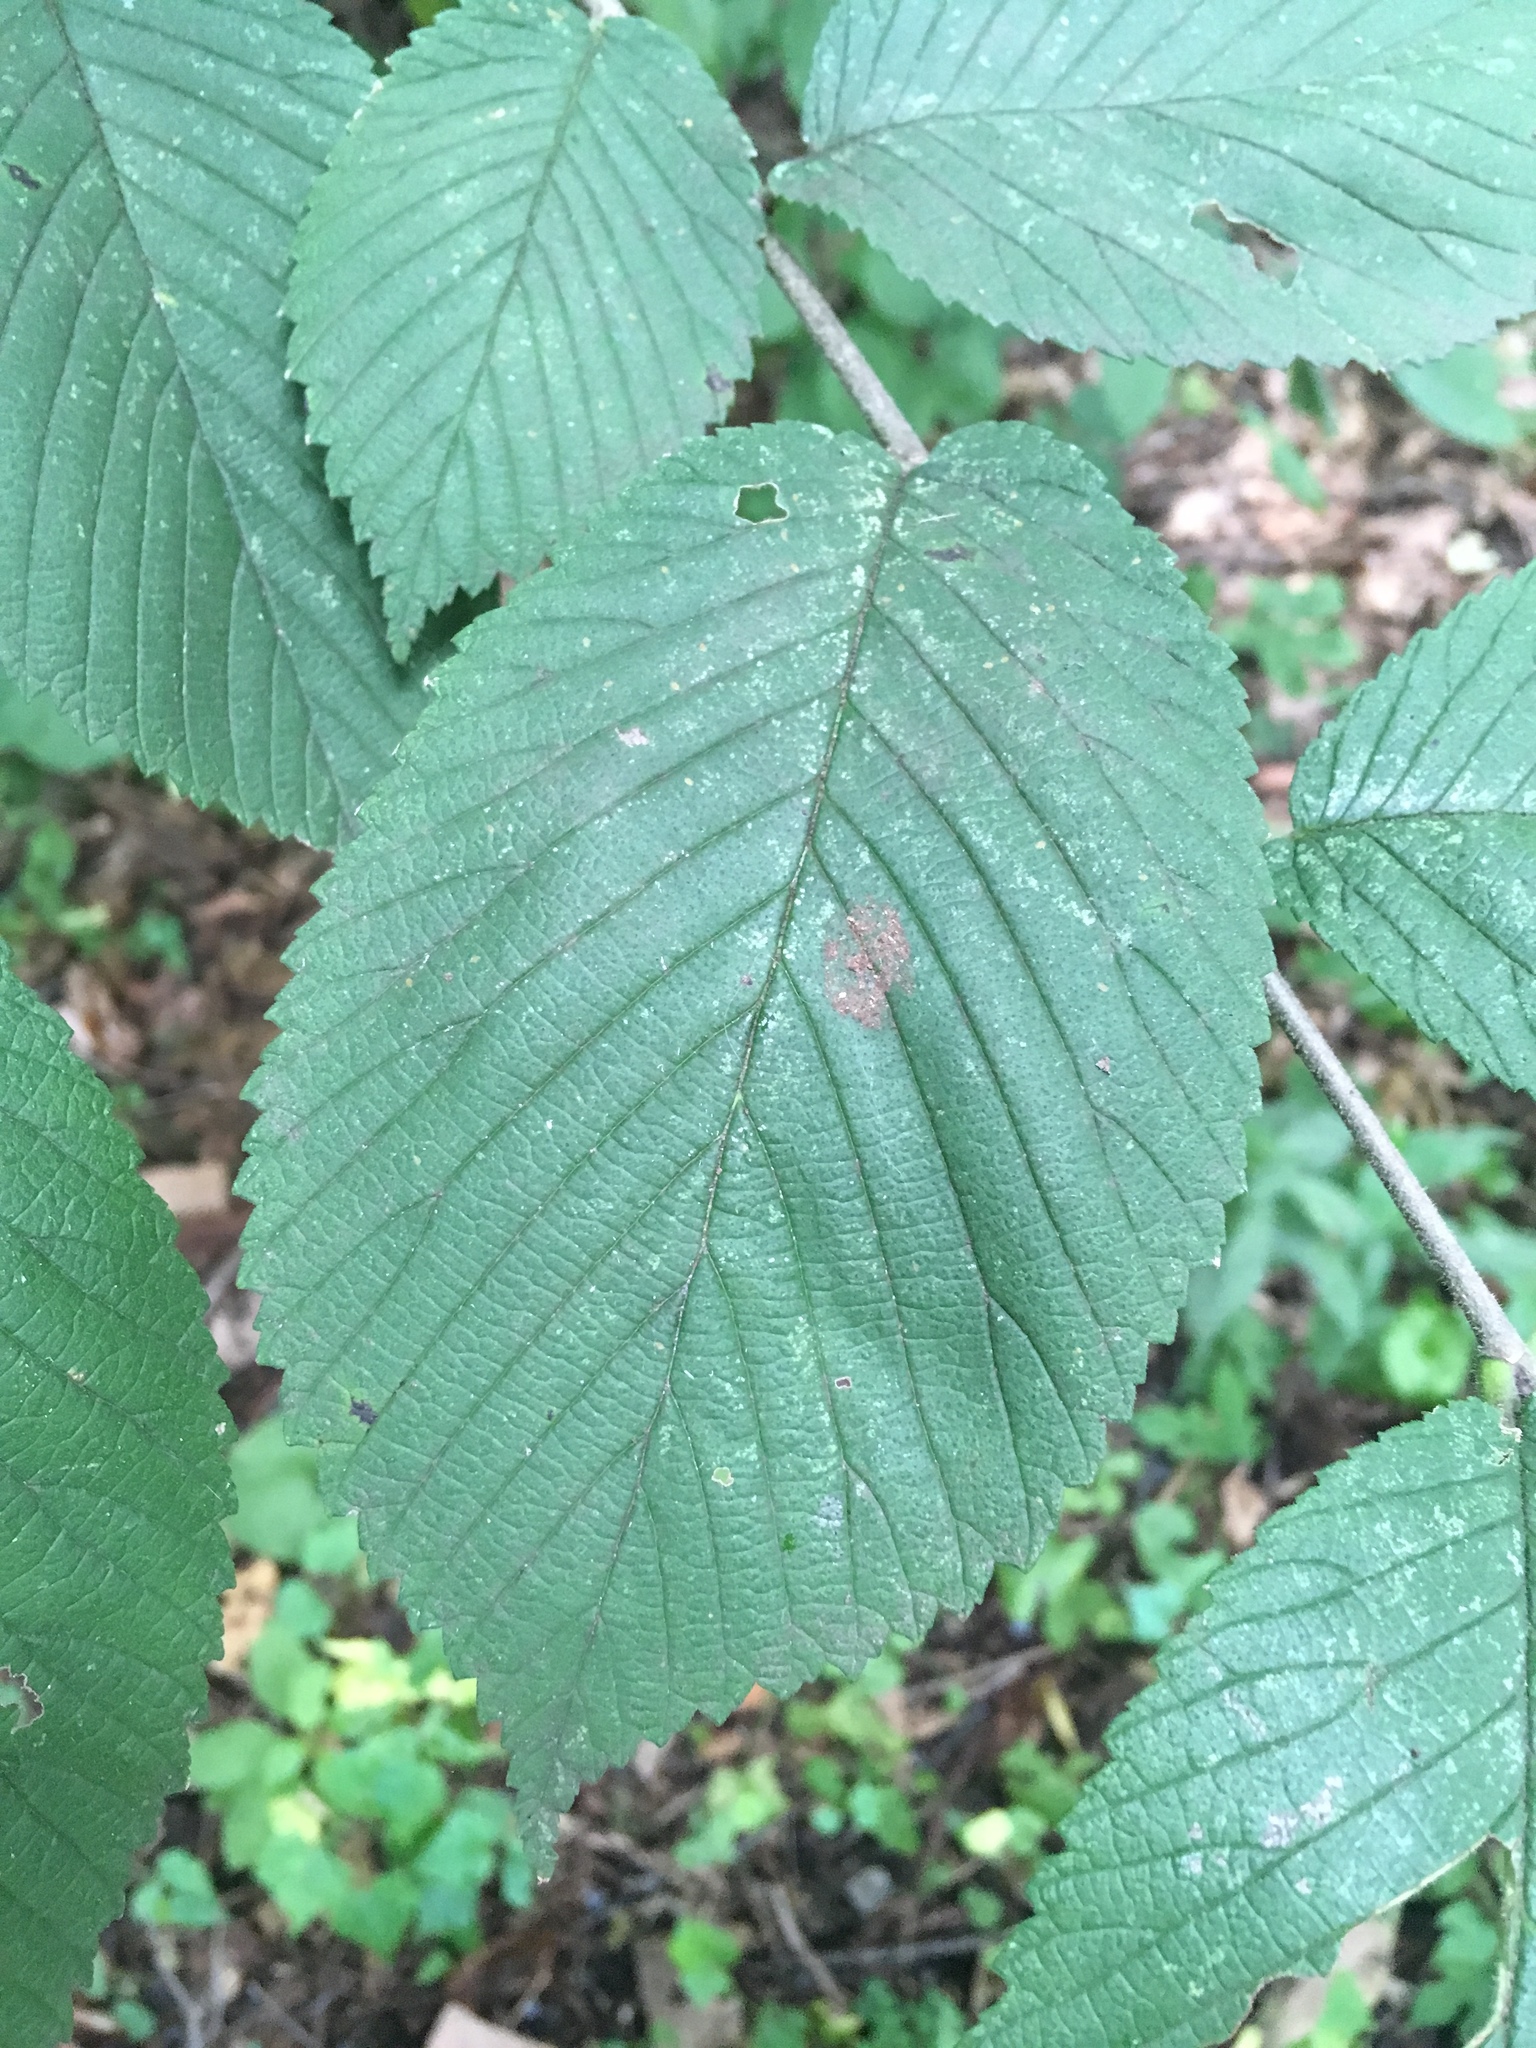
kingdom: Plantae
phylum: Tracheophyta
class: Magnoliopsida
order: Rosales
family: Ulmaceae
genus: Ulmus
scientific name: Ulmus rubra
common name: Slippery elm
